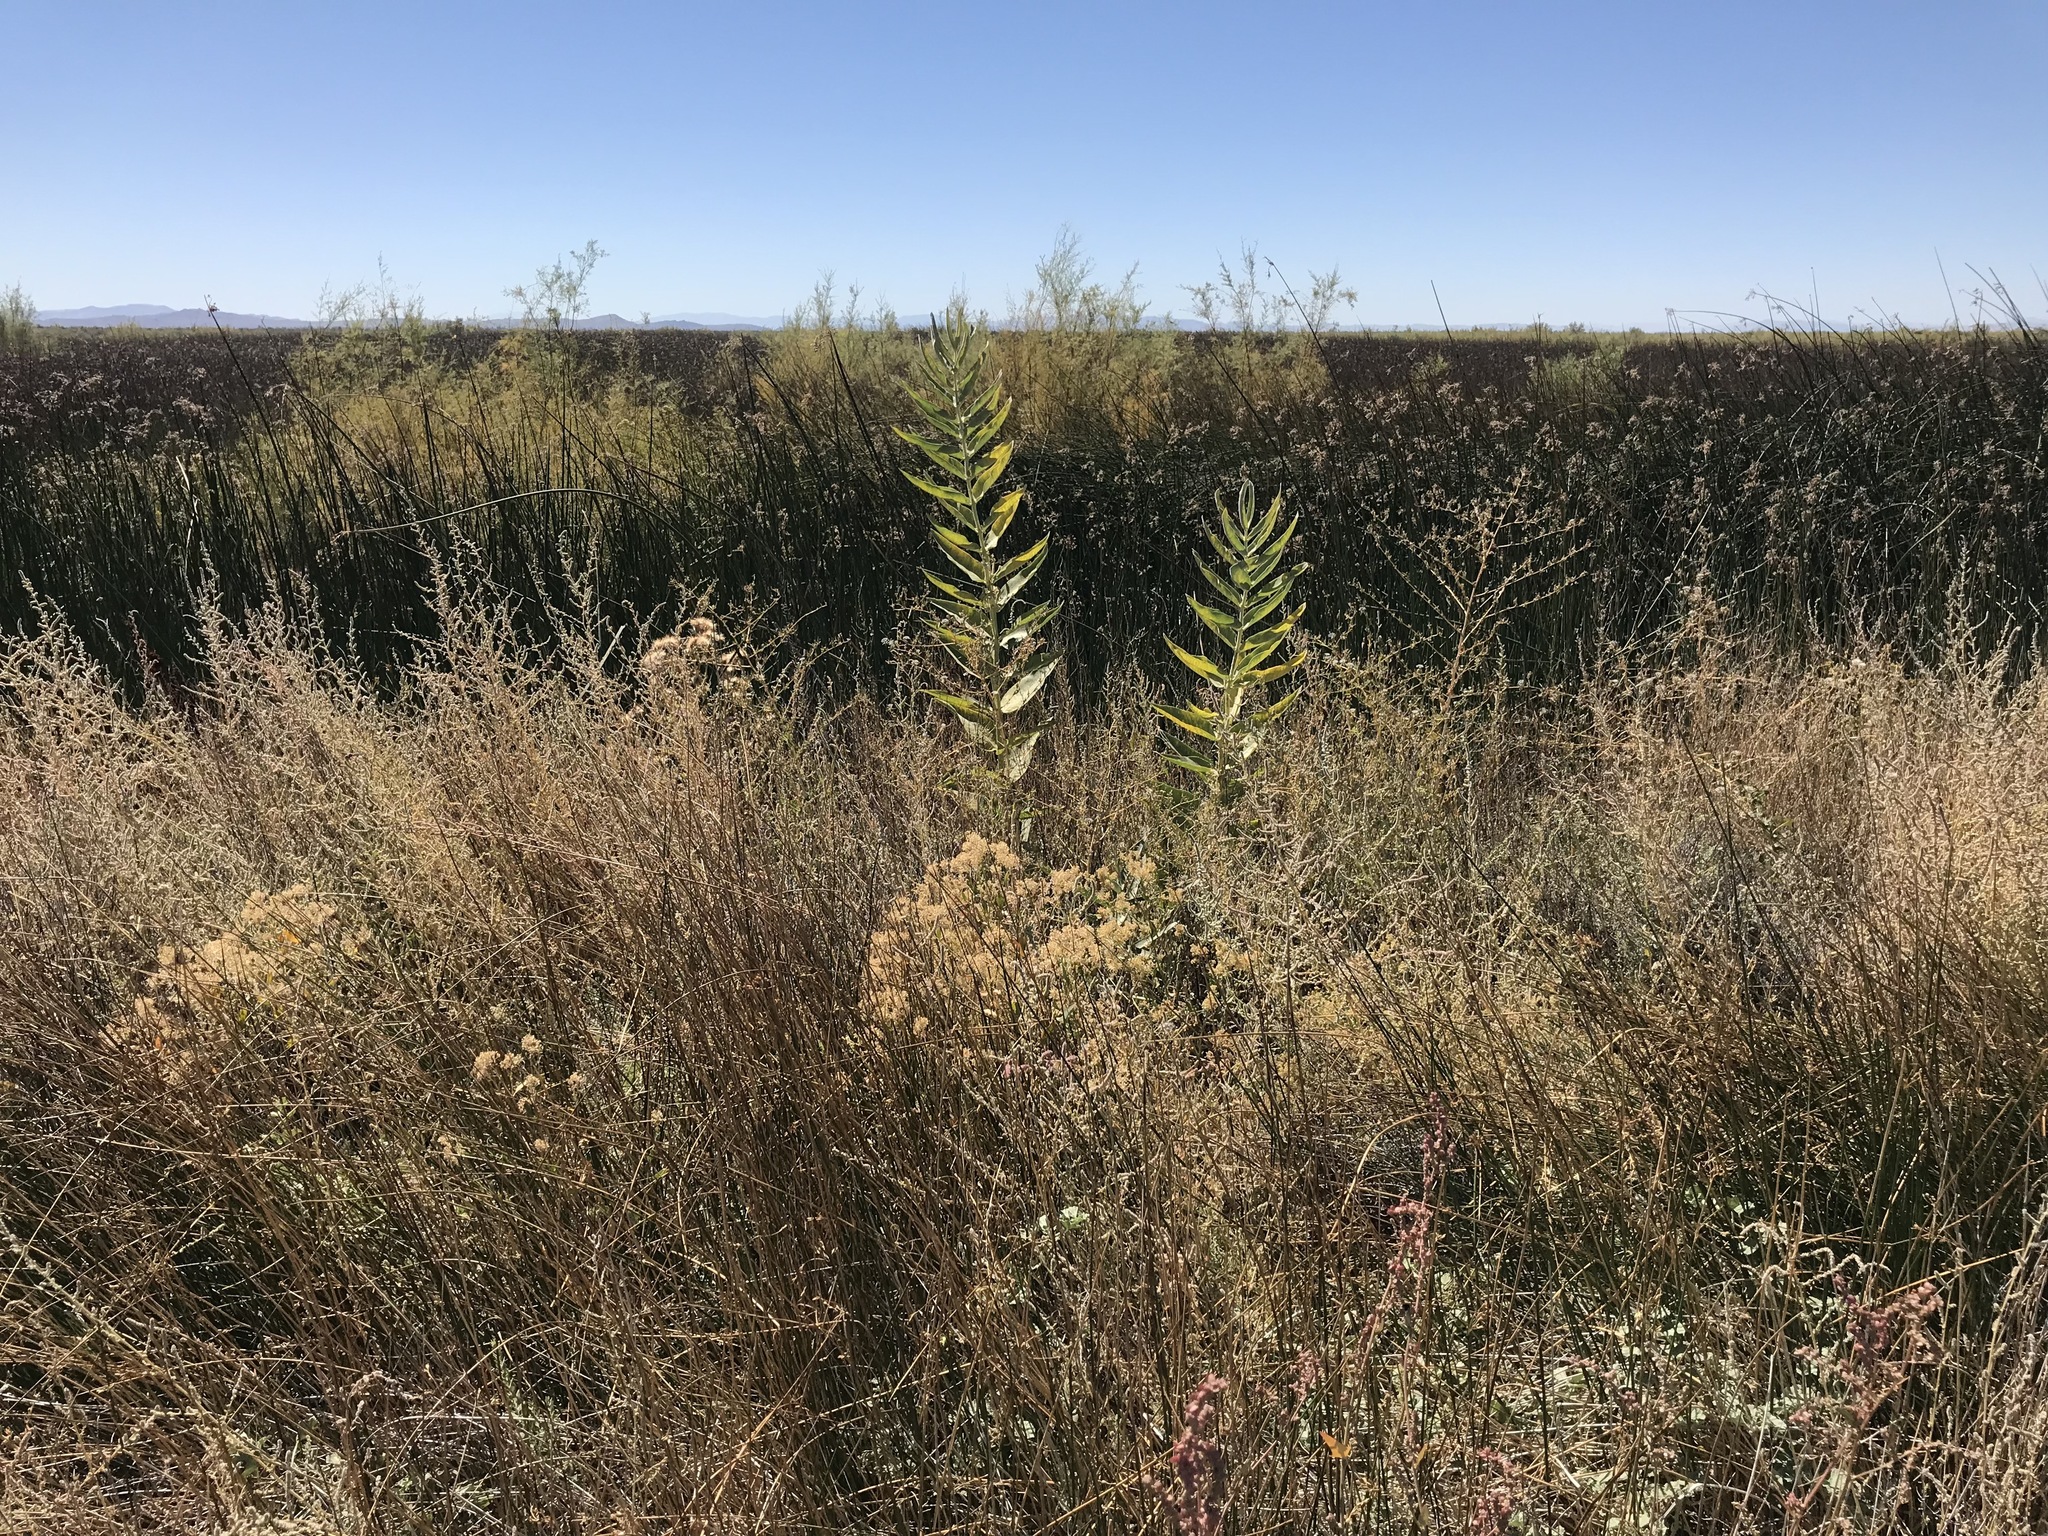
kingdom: Plantae
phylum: Tracheophyta
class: Magnoliopsida
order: Gentianales
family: Apocynaceae
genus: Asclepias
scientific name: Asclepias speciosa
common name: Showy milkweed
